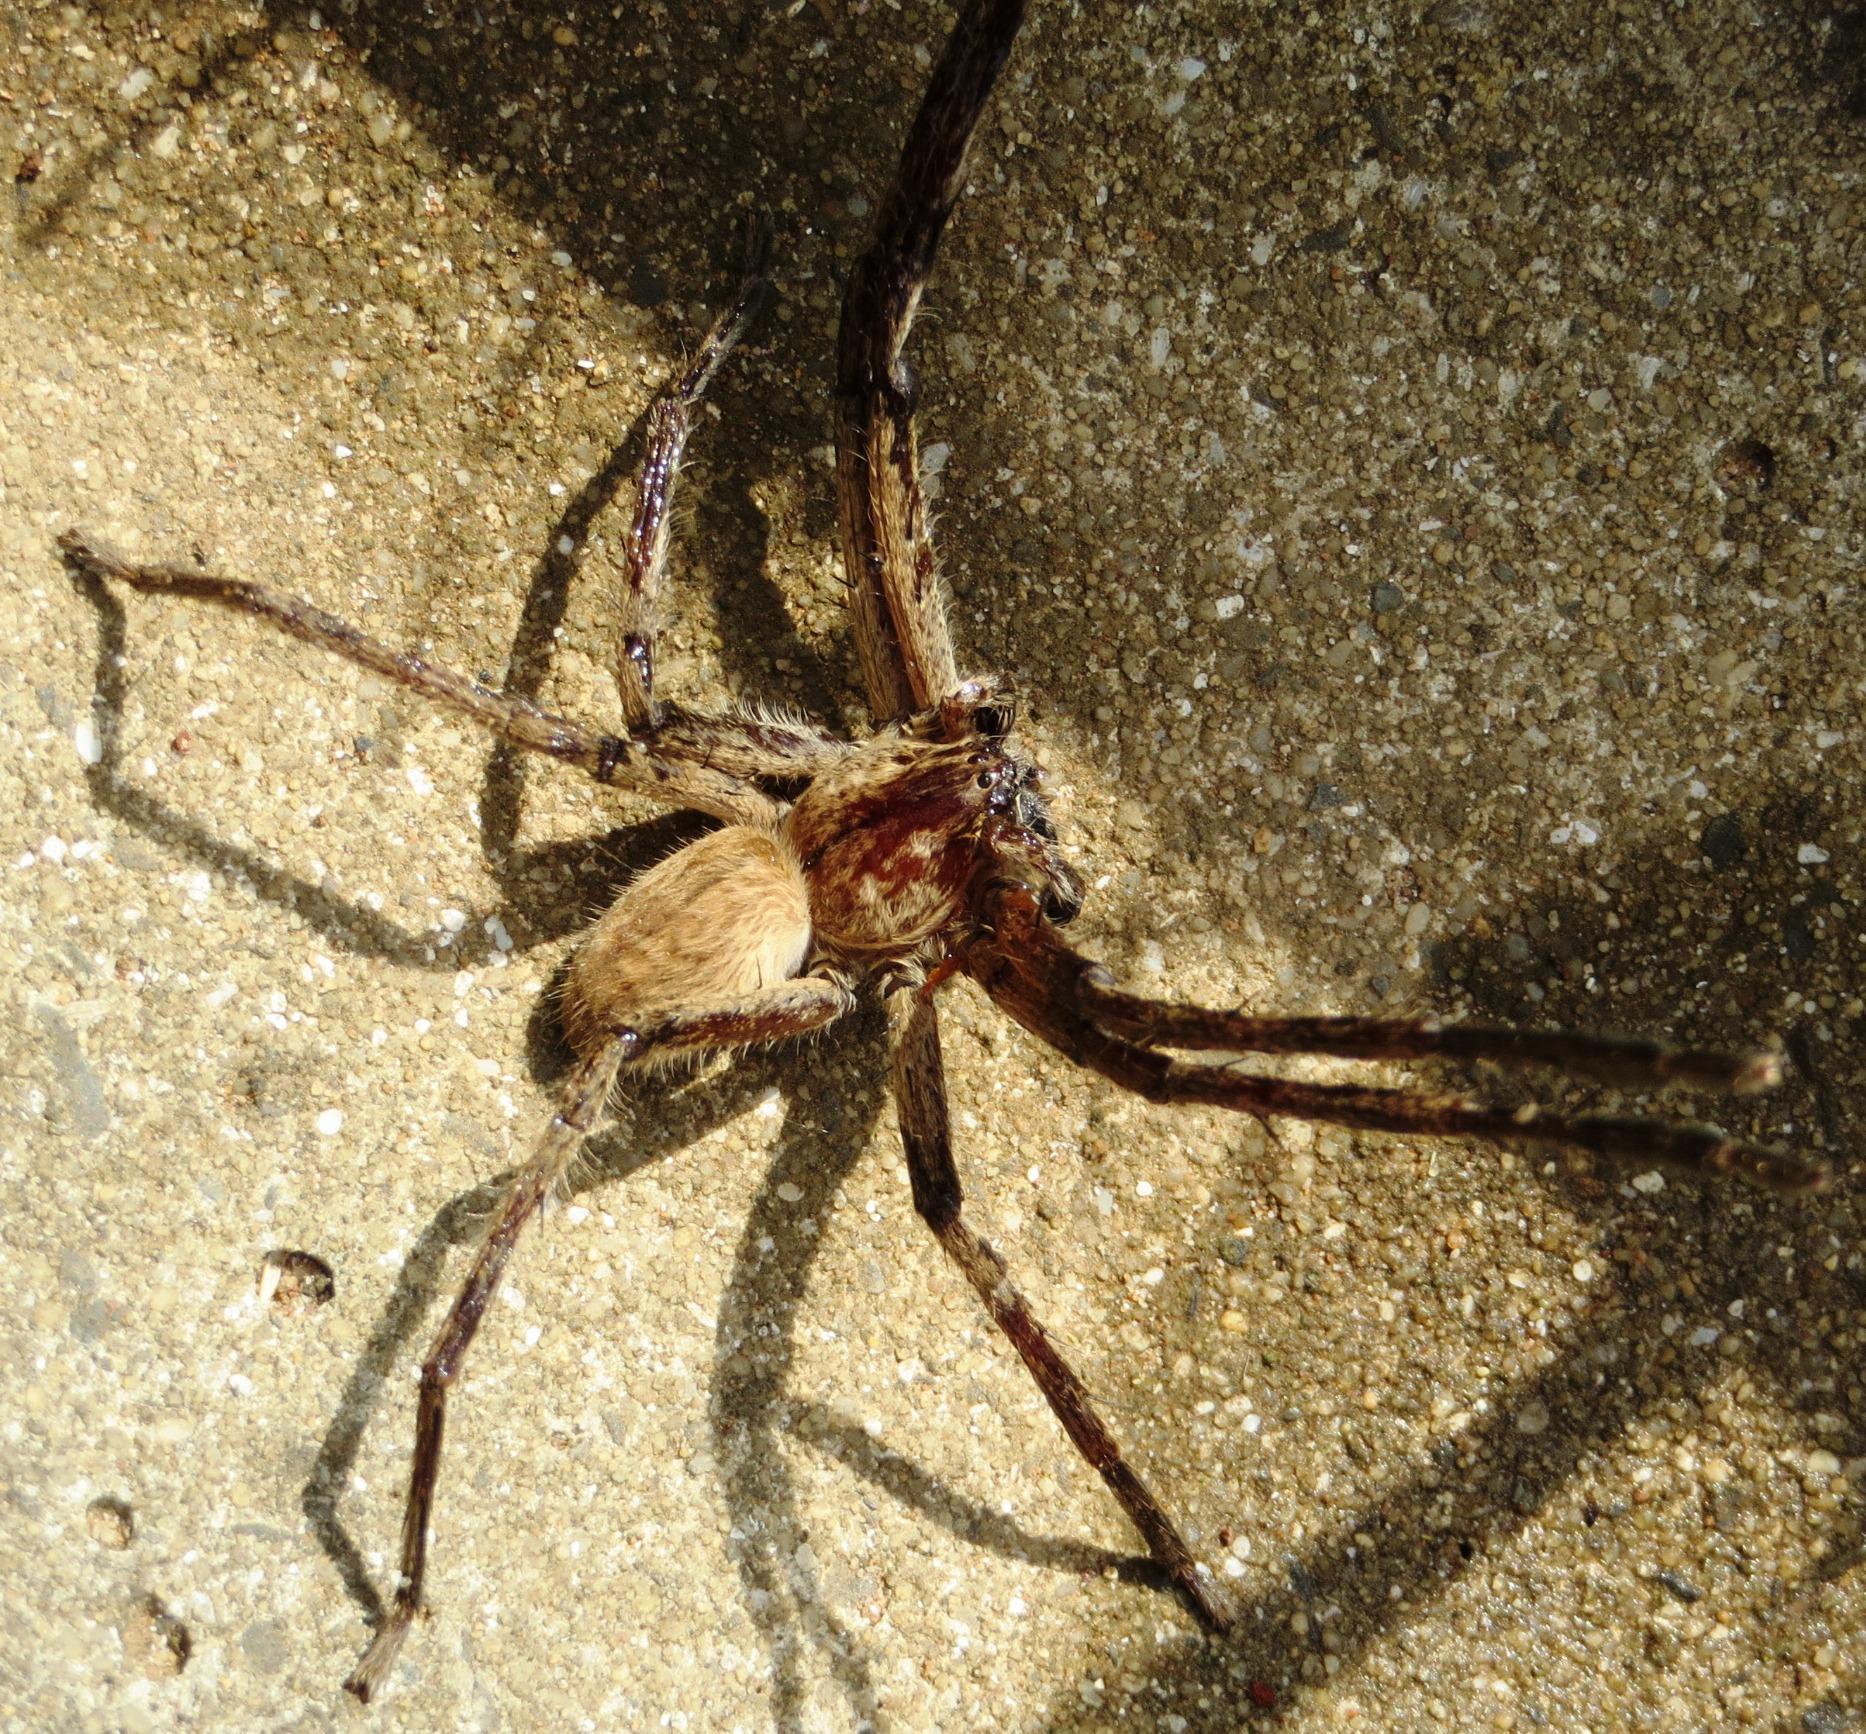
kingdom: Animalia
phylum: Arthropoda
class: Arachnida
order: Araneae
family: Sparassidae
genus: Palystes
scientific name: Palystes superciliosus
